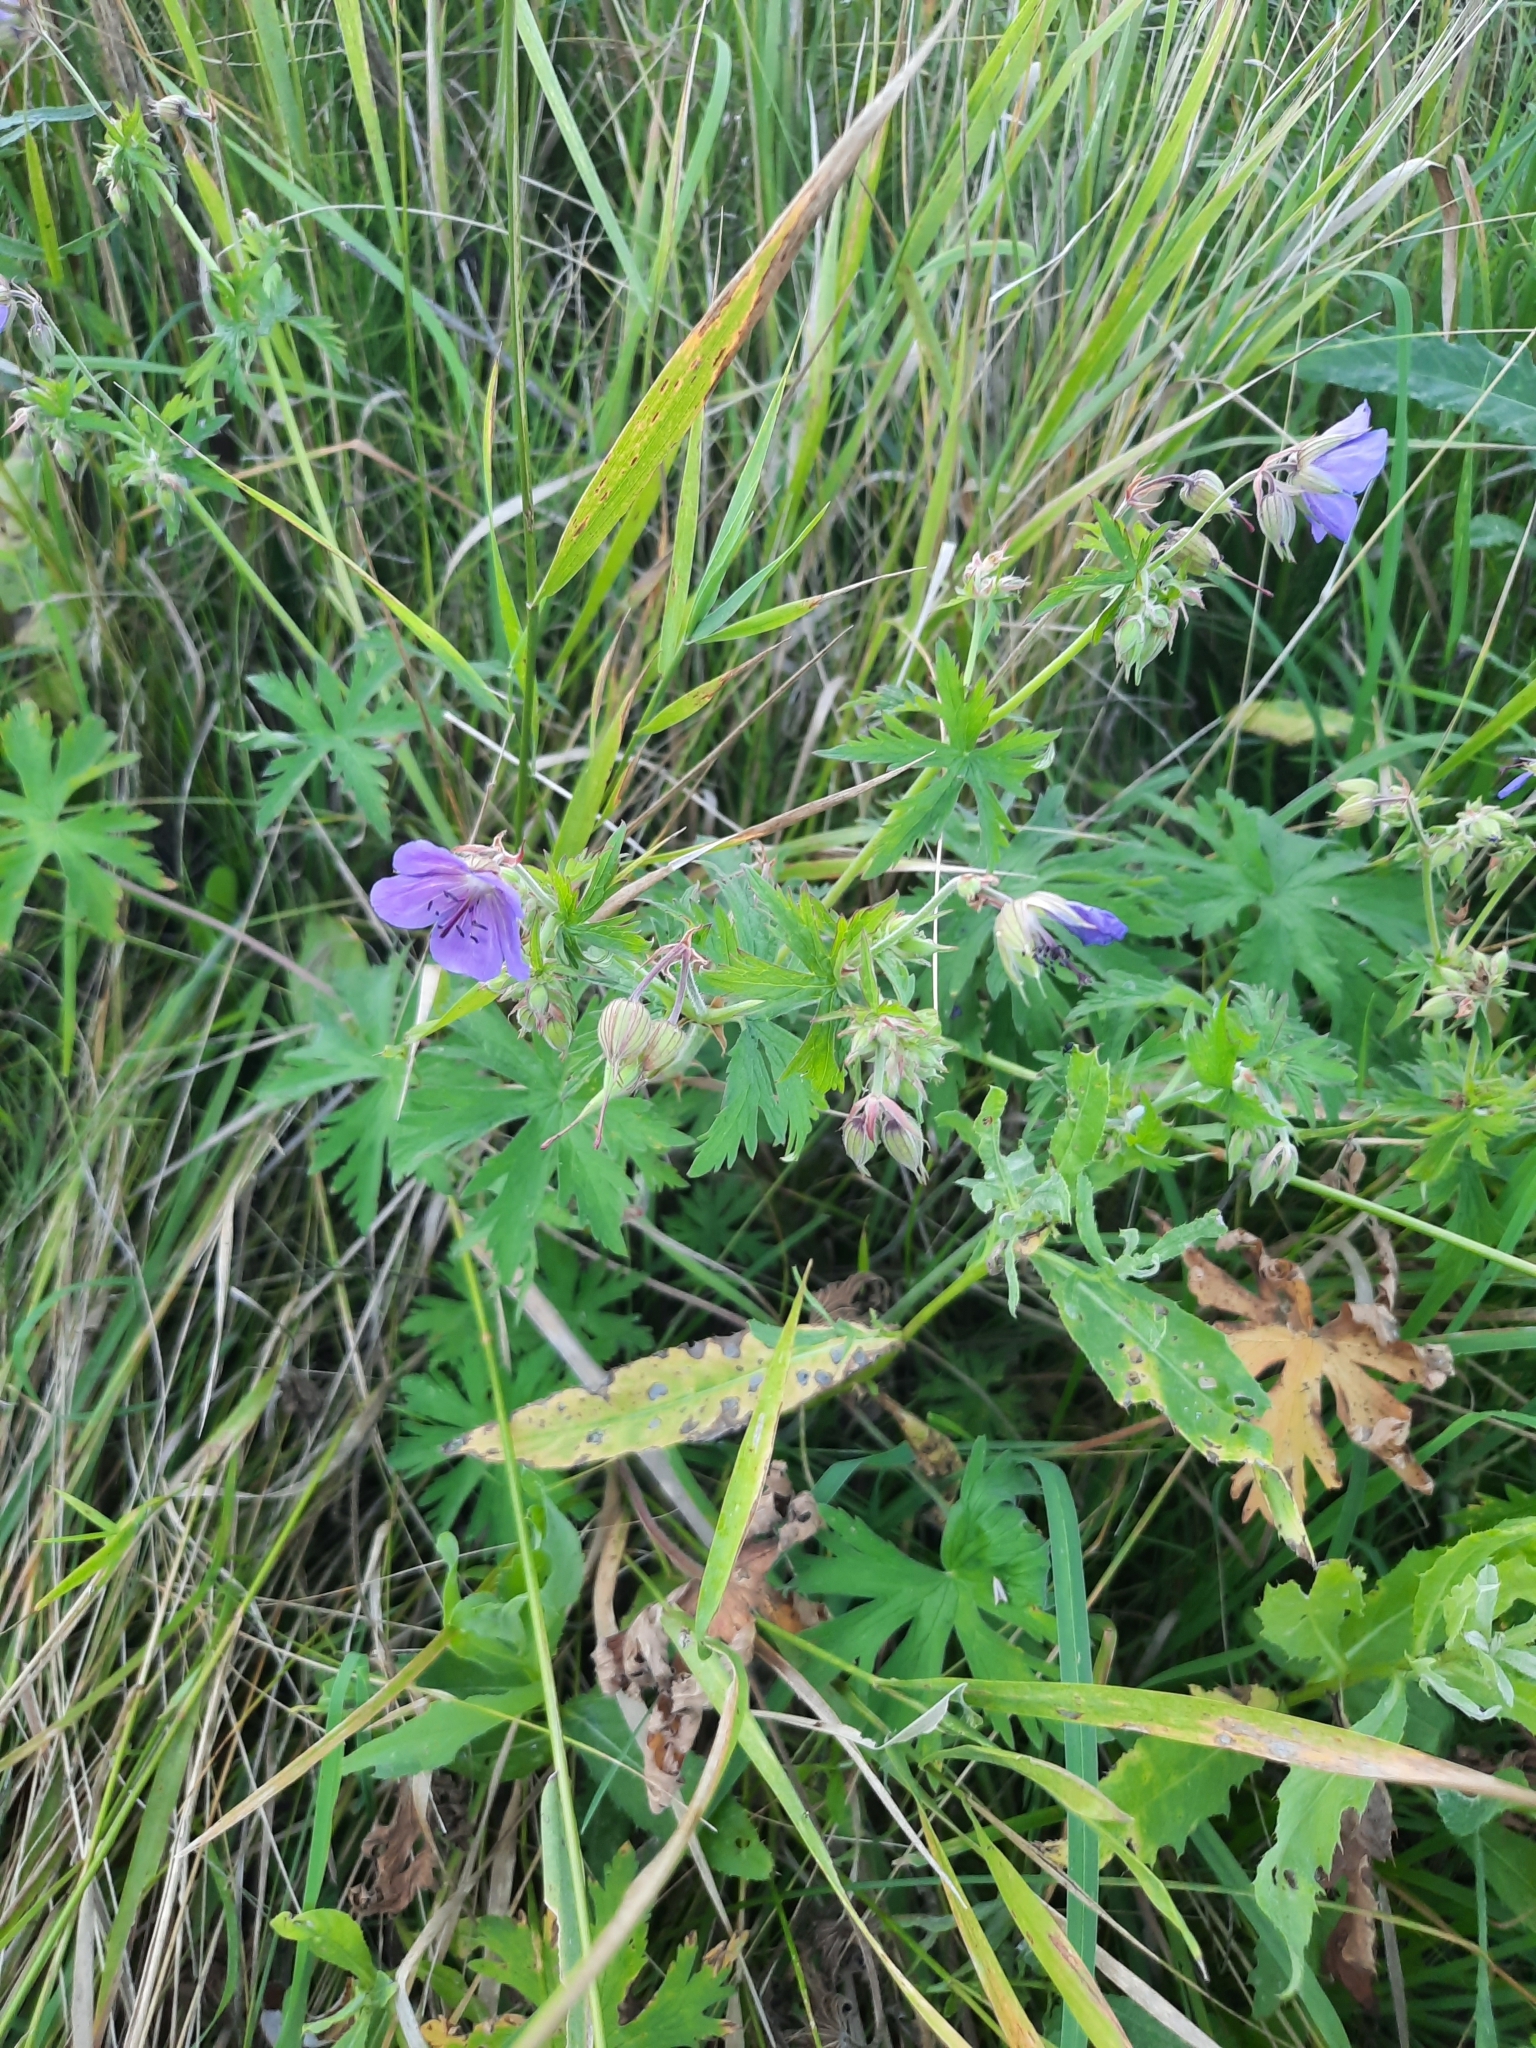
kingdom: Plantae
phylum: Tracheophyta
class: Magnoliopsida
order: Geraniales
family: Geraniaceae
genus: Geranium
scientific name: Geranium pratense
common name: Meadow crane's-bill
